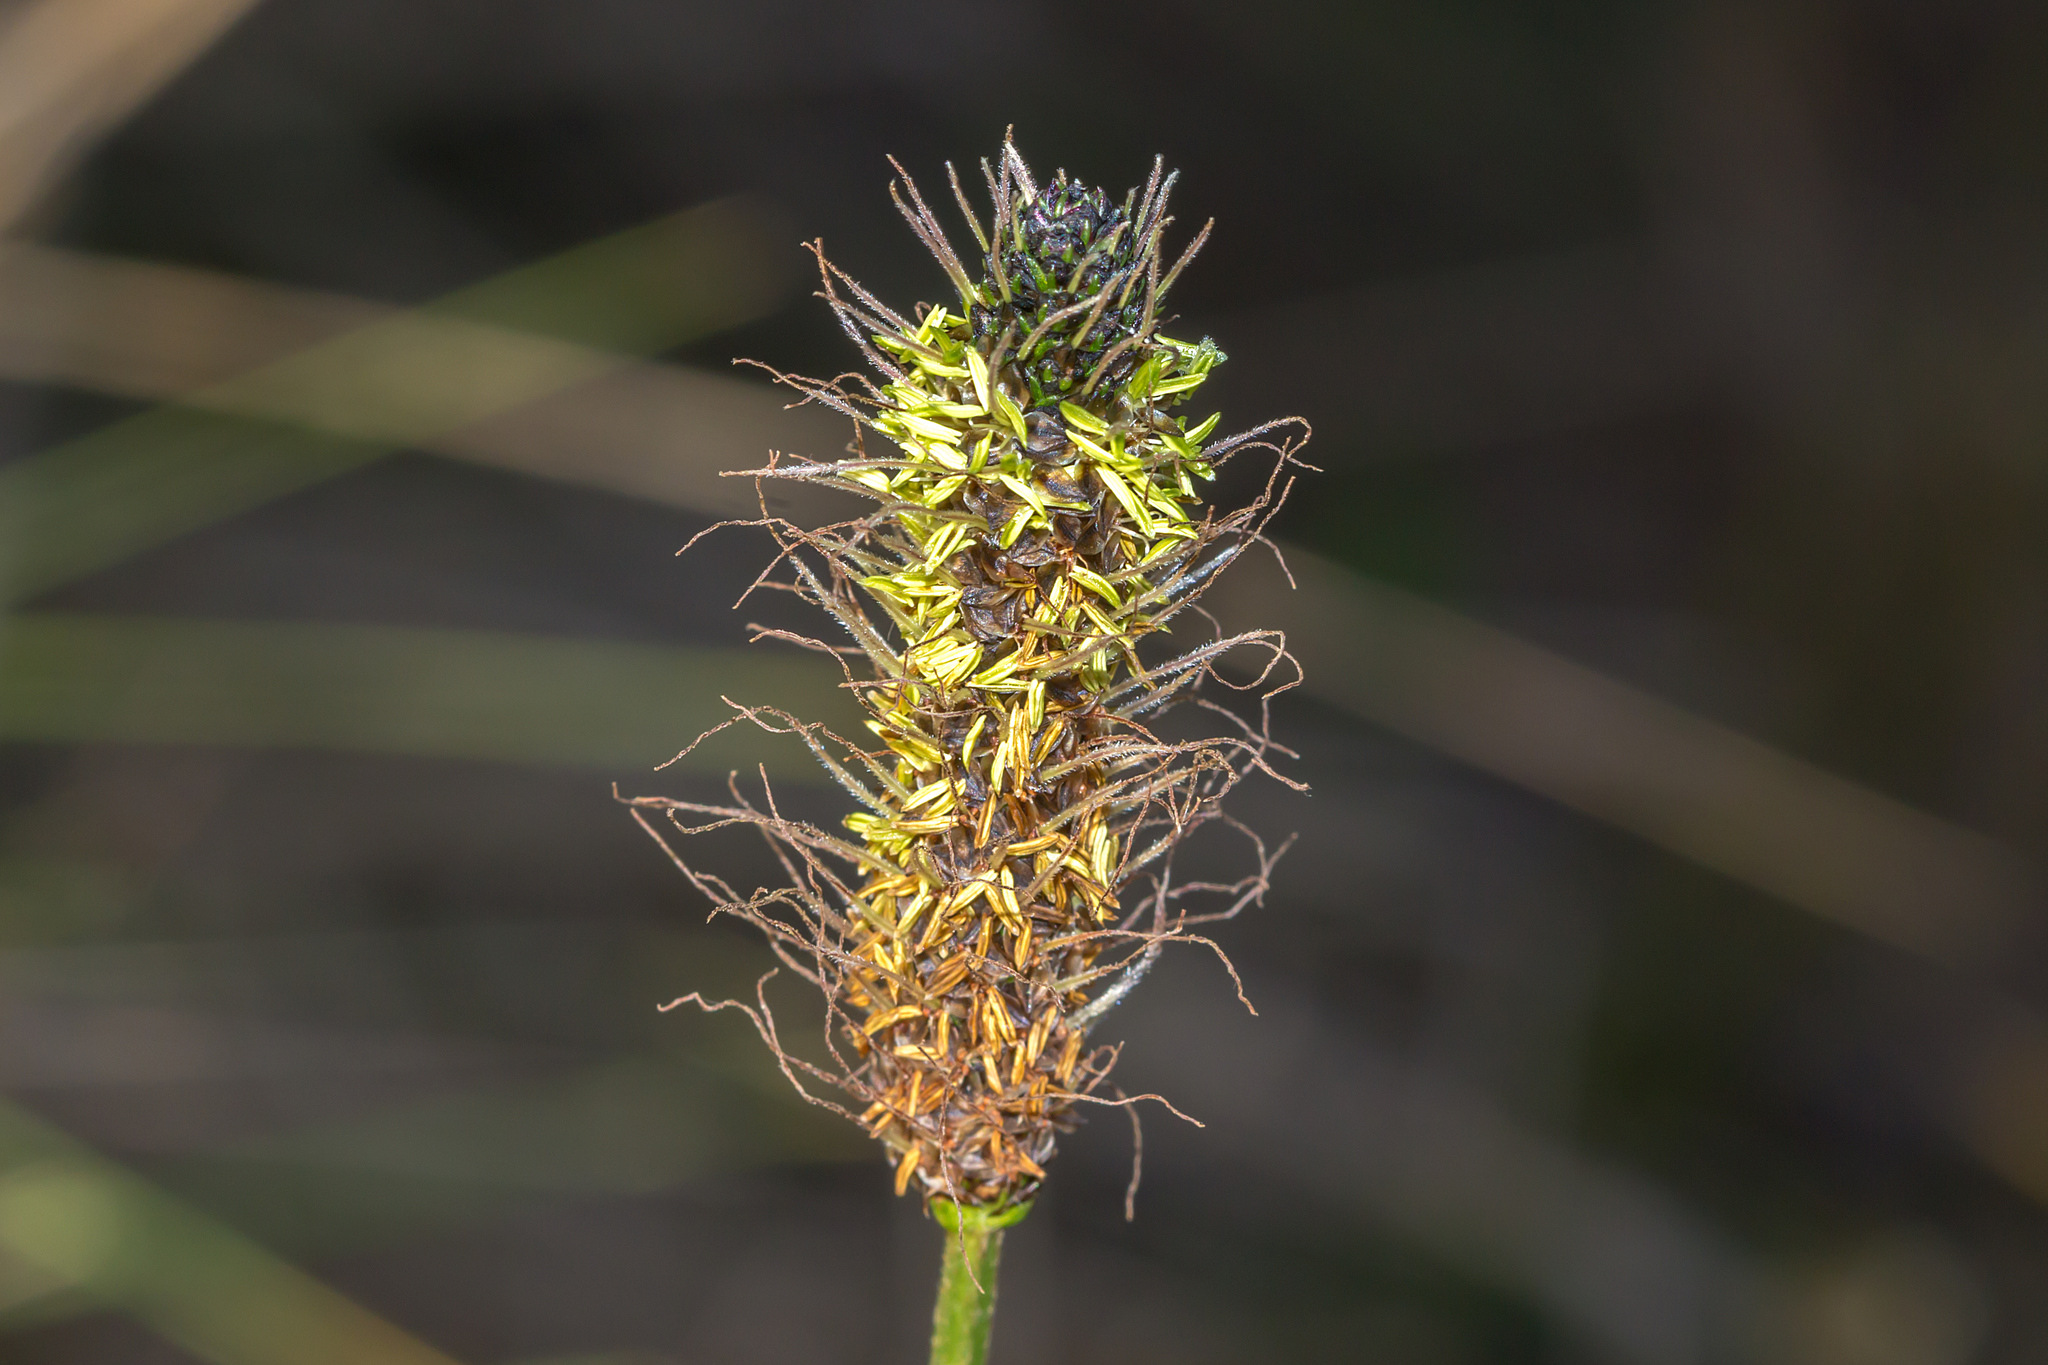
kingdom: Plantae
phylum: Tracheophyta
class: Magnoliopsida
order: Lamiales
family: Plantaginaceae
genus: Plantago
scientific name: Plantago lanceolata
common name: Ribwort plantain
